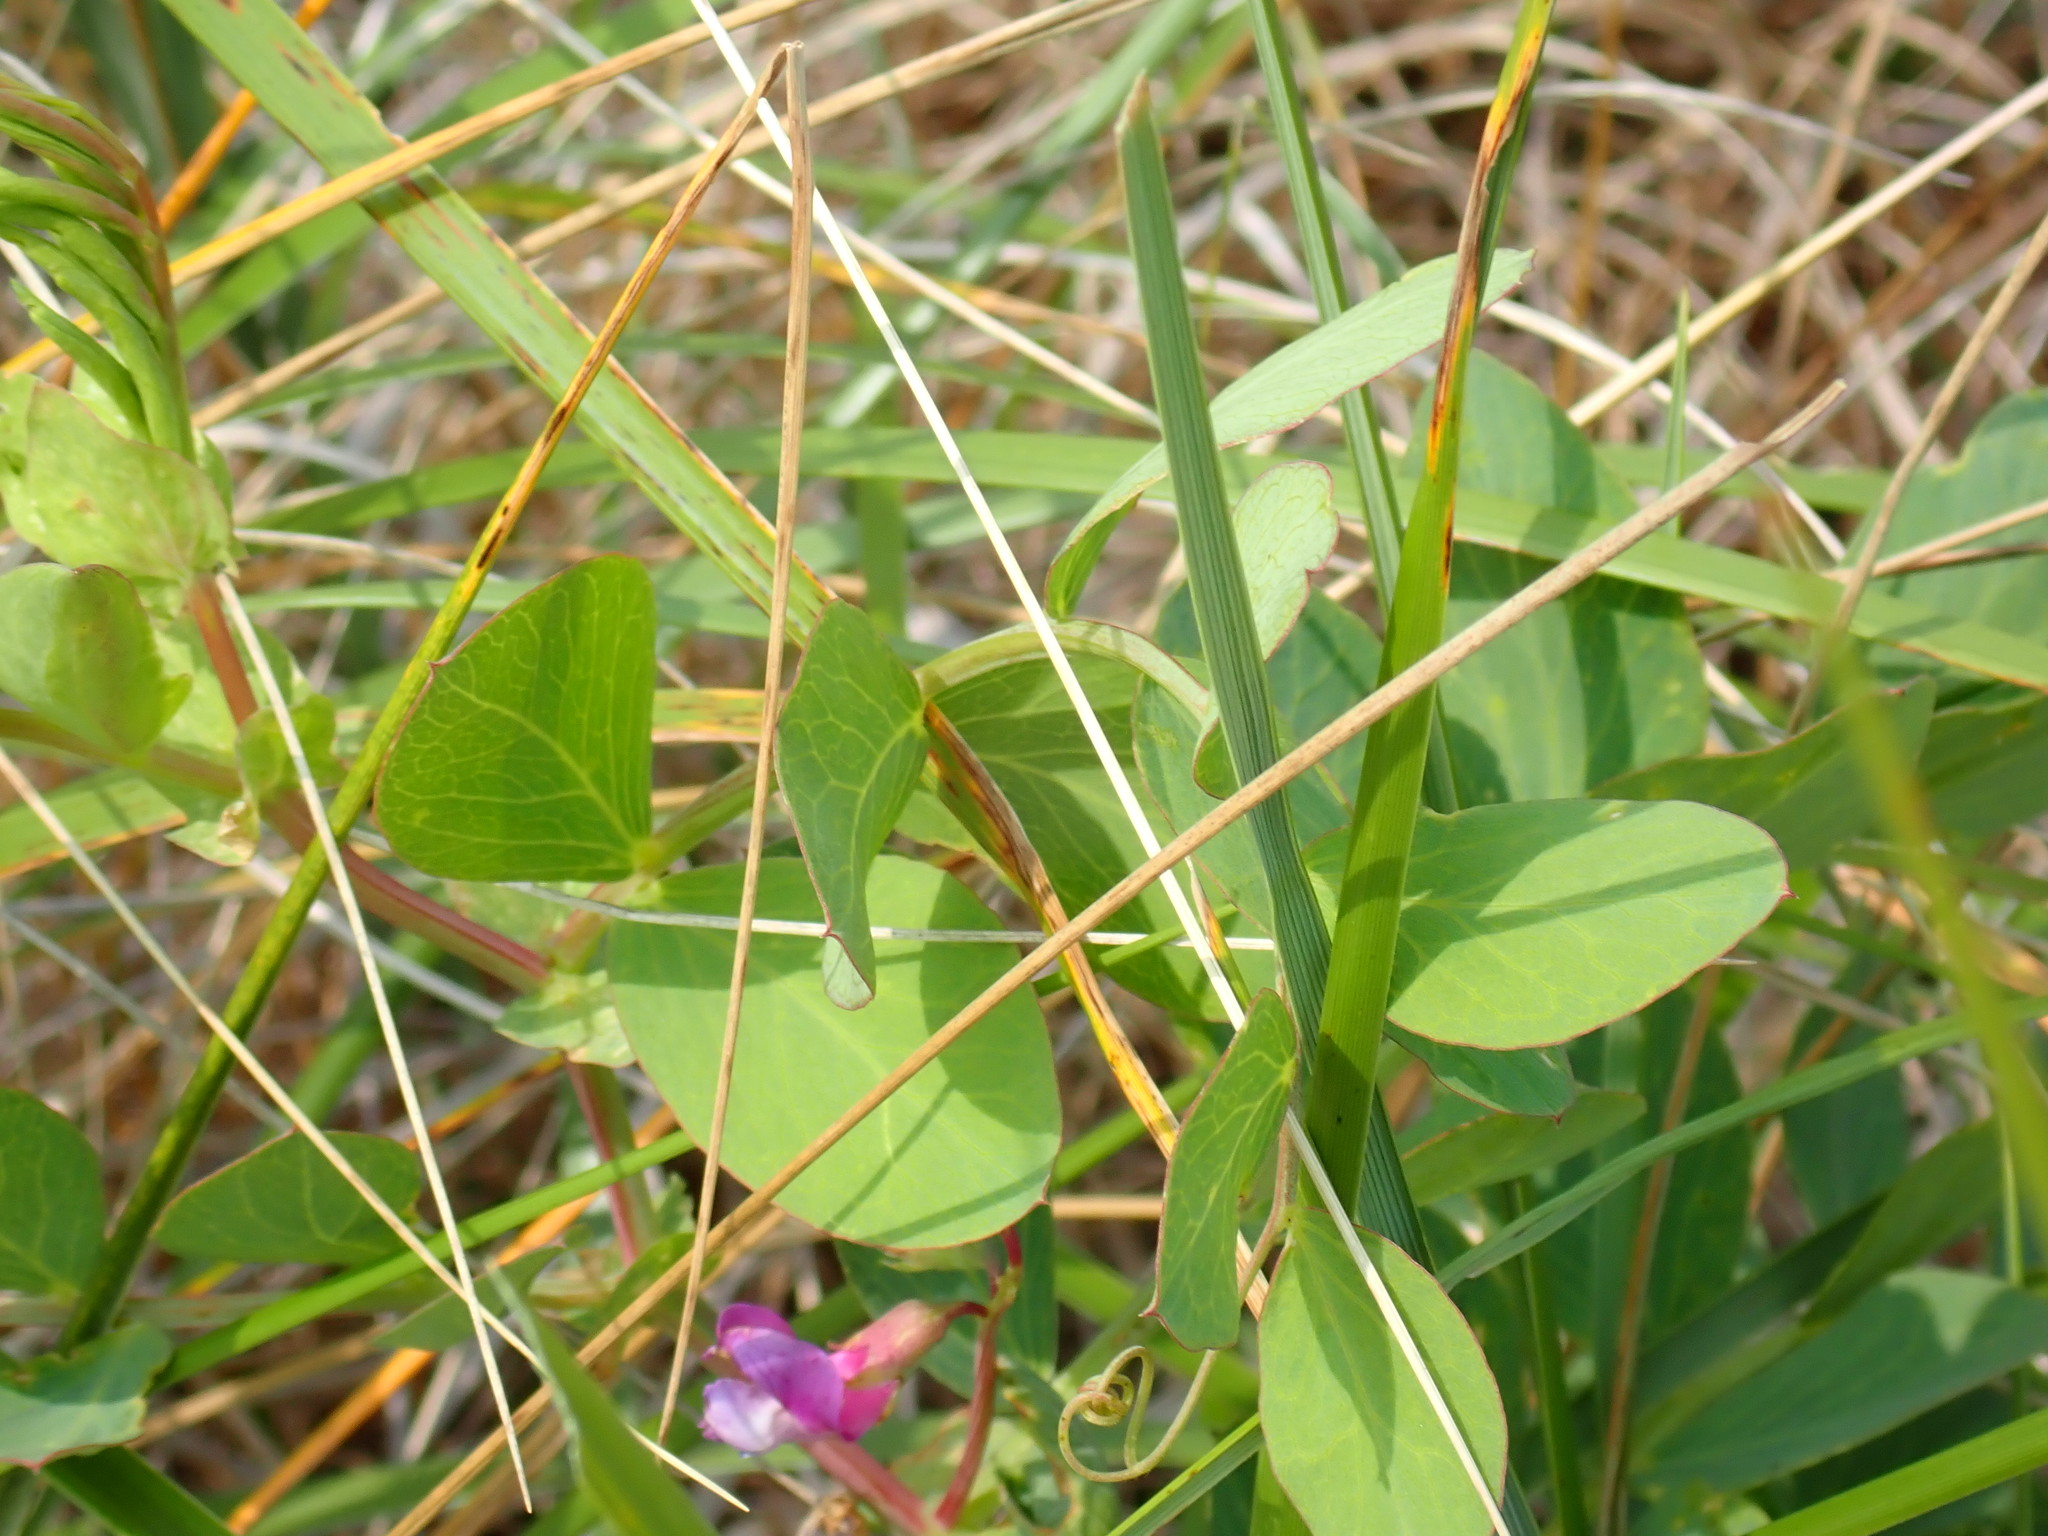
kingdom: Plantae
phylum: Tracheophyta
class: Magnoliopsida
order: Fabales
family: Fabaceae
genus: Lathyrus
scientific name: Lathyrus japonicus
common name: Sea pea
